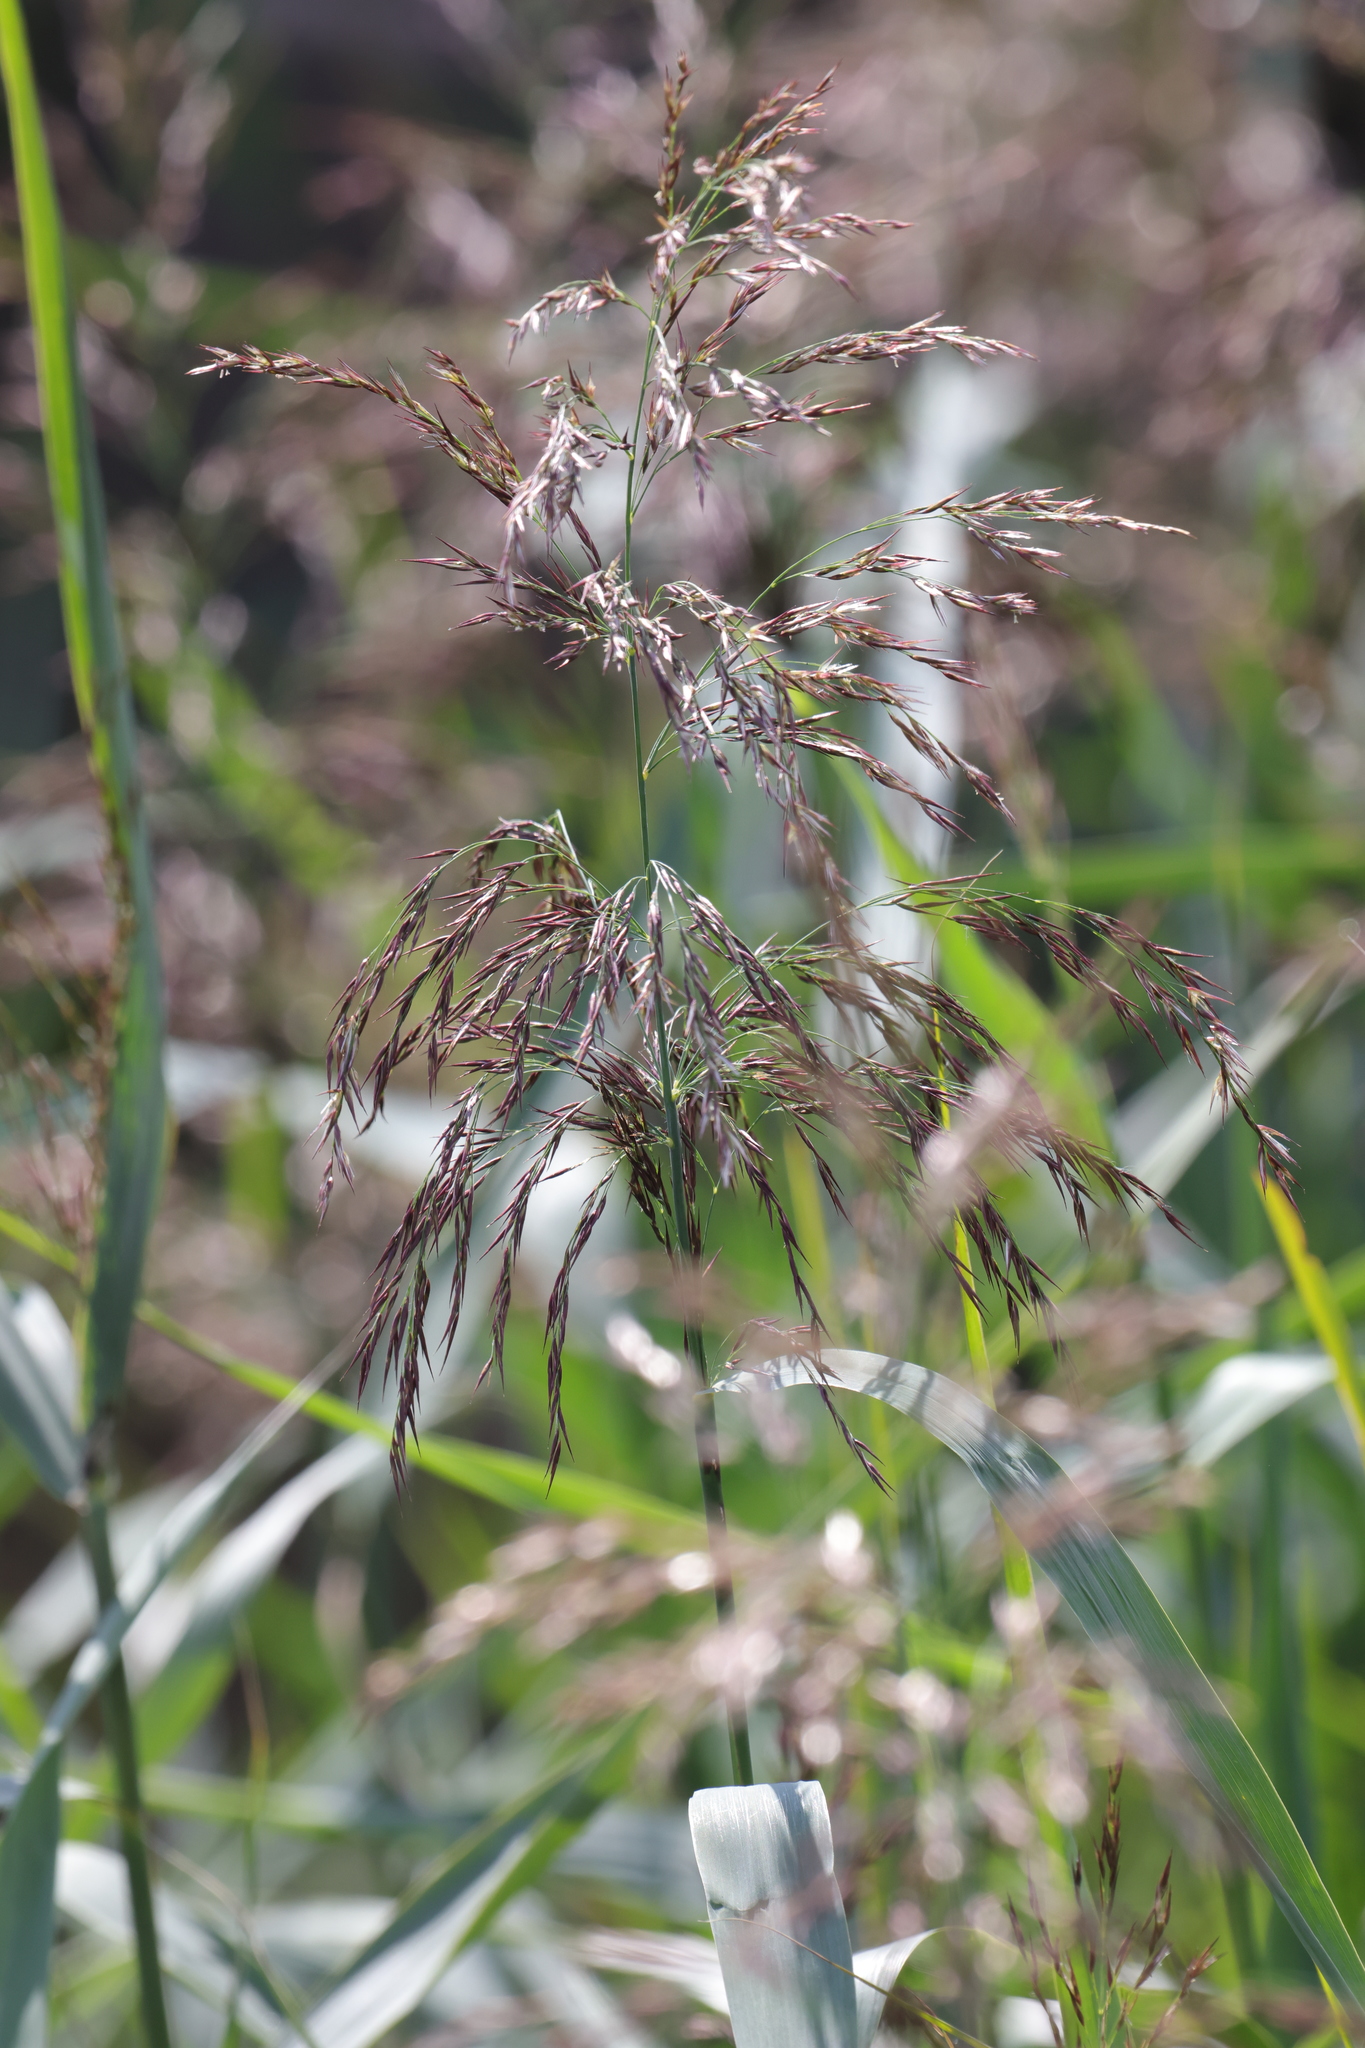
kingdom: Plantae
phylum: Tracheophyta
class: Liliopsida
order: Poales
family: Poaceae
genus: Phragmites
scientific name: Phragmites australis
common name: Common reed
